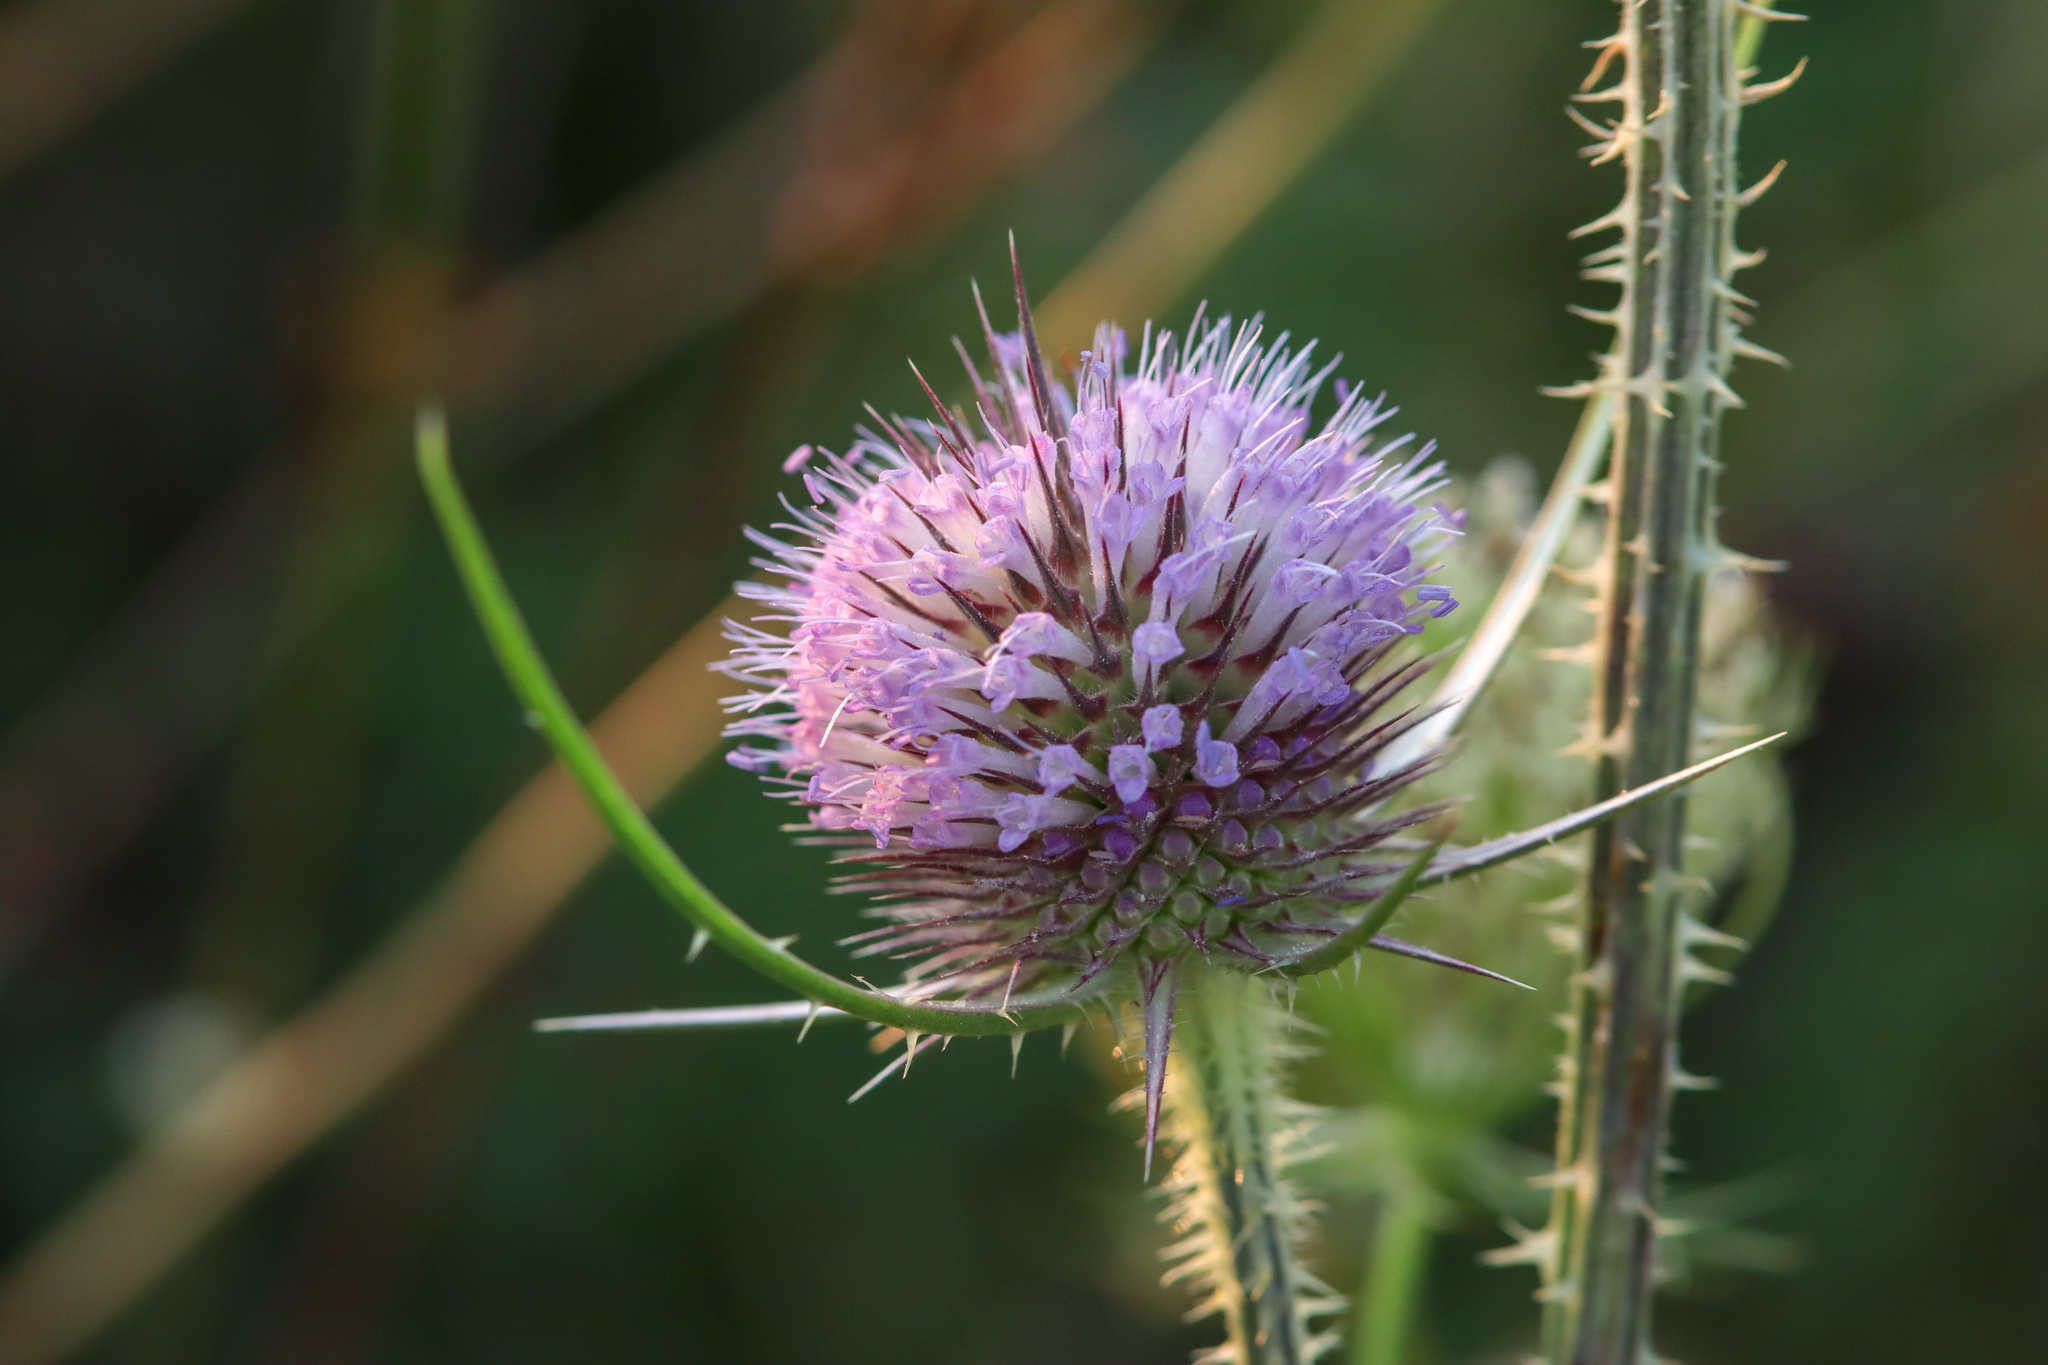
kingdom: Plantae
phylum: Tracheophyta
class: Magnoliopsida
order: Dipsacales
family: Caprifoliaceae
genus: Dipsacus
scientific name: Dipsacus fullonum
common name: Teasel
